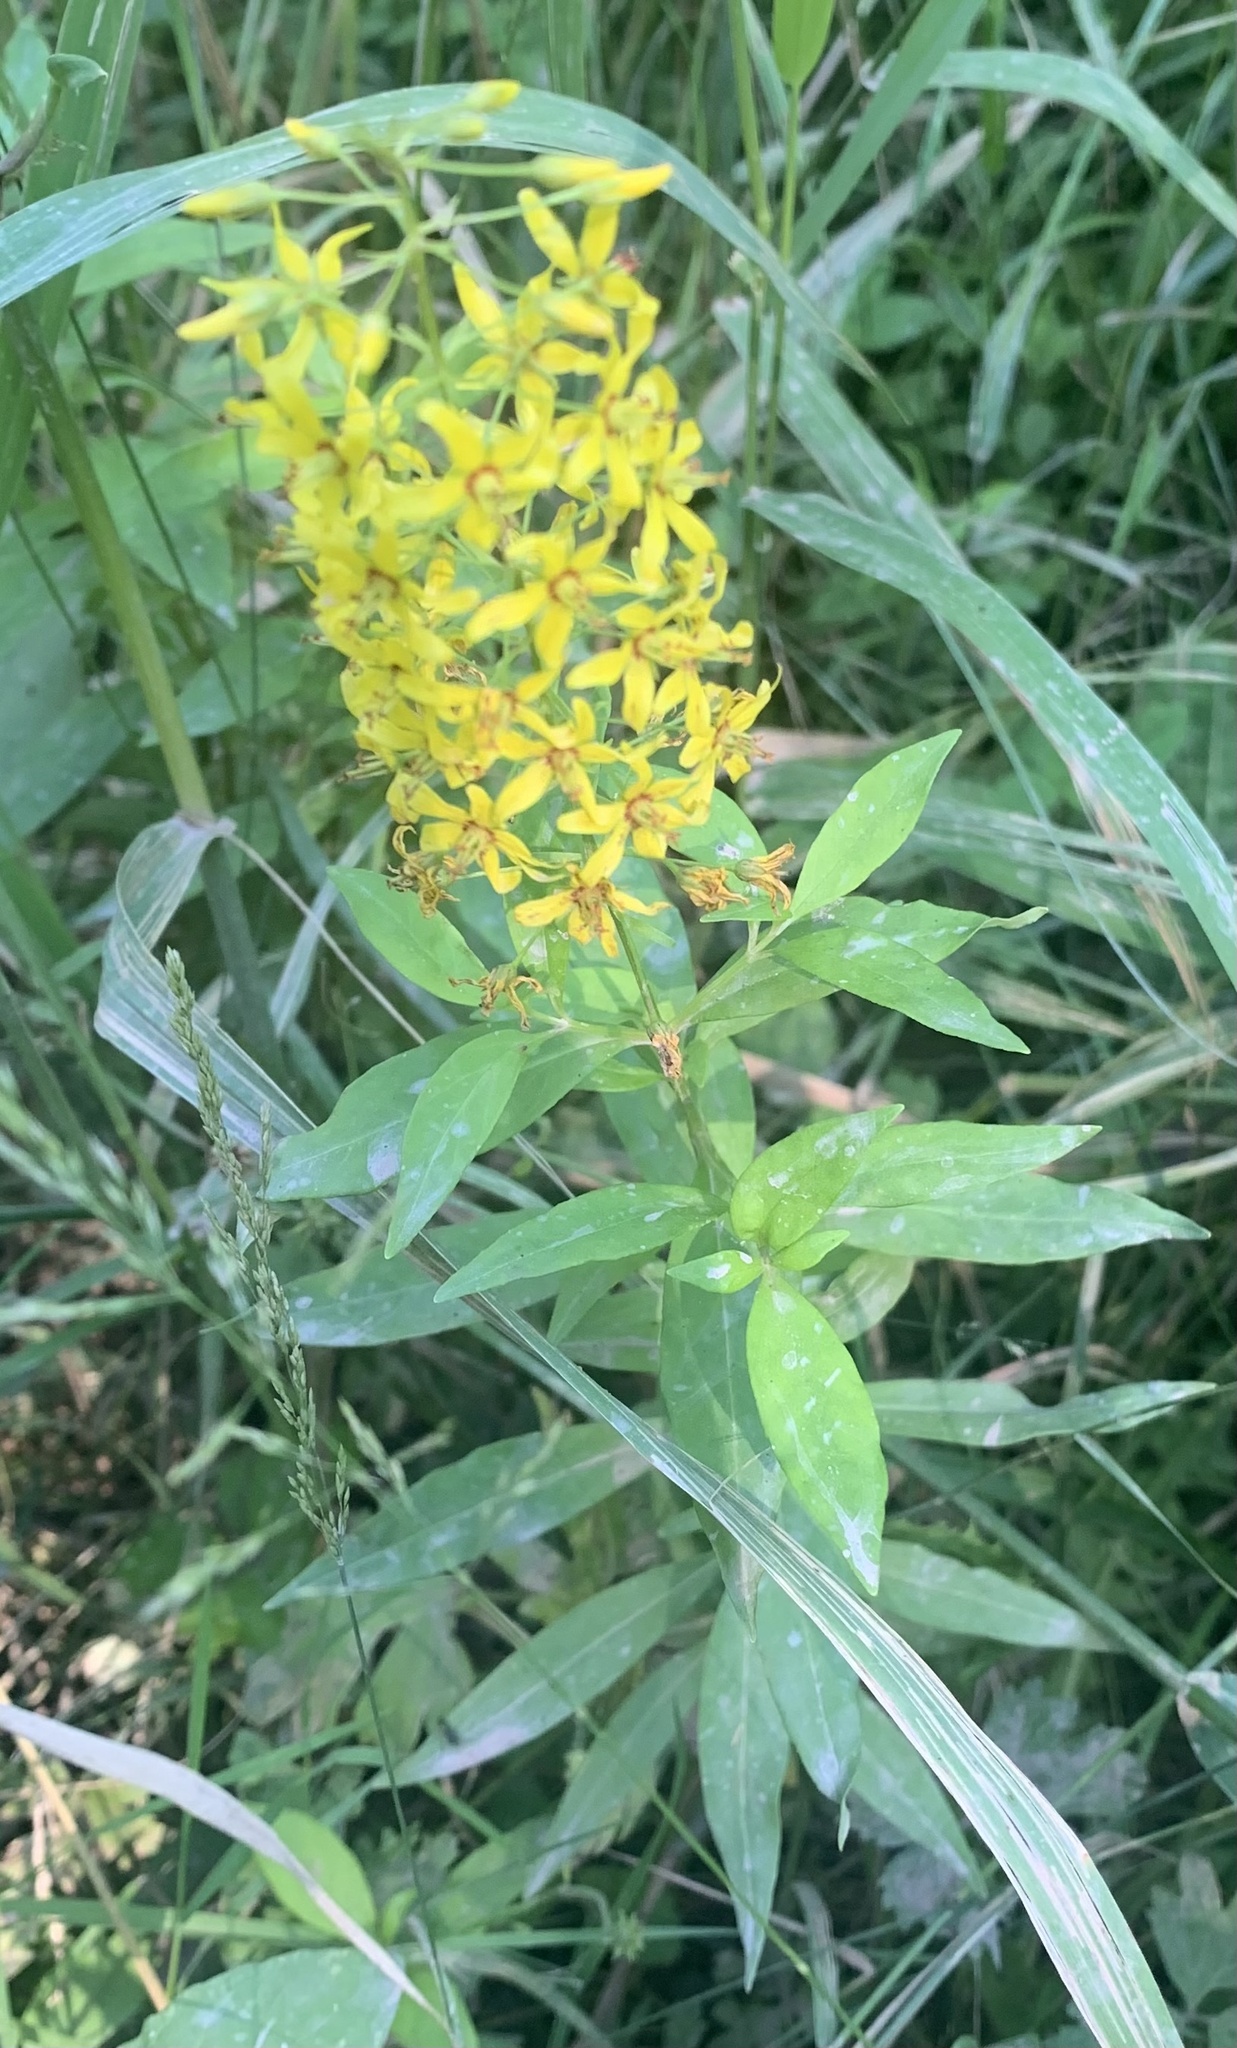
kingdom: Plantae
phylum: Tracheophyta
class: Magnoliopsida
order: Ericales
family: Primulaceae
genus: Lysimachia
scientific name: Lysimachia terrestris
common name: Lake loosestrife
